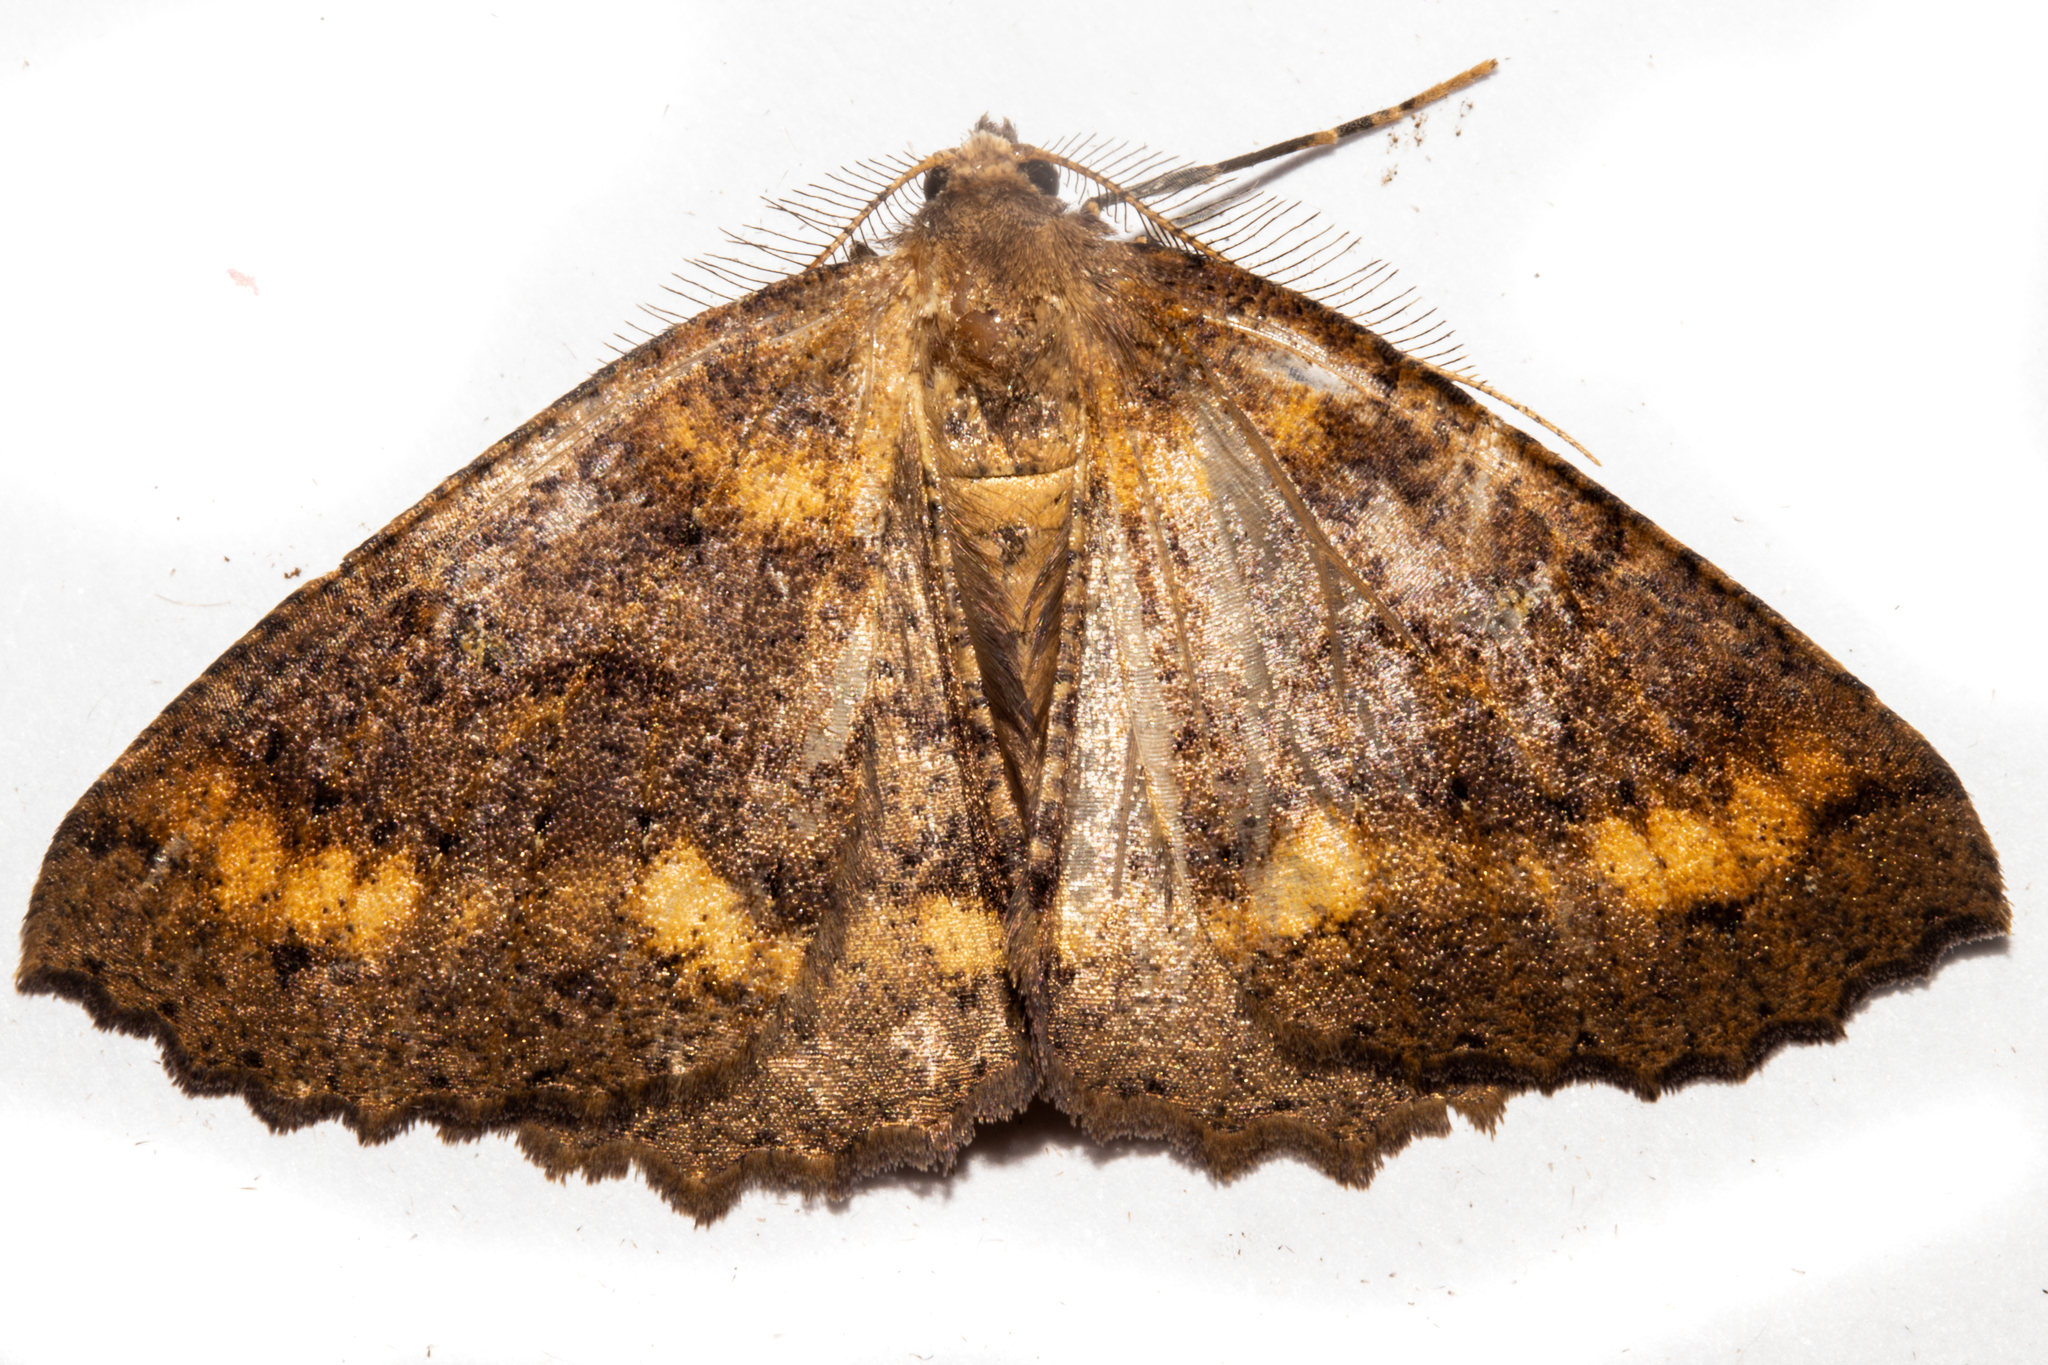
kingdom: Animalia
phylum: Arthropoda
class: Insecta
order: Lepidoptera
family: Geometridae
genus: Cleora
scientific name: Cleora scriptaria
